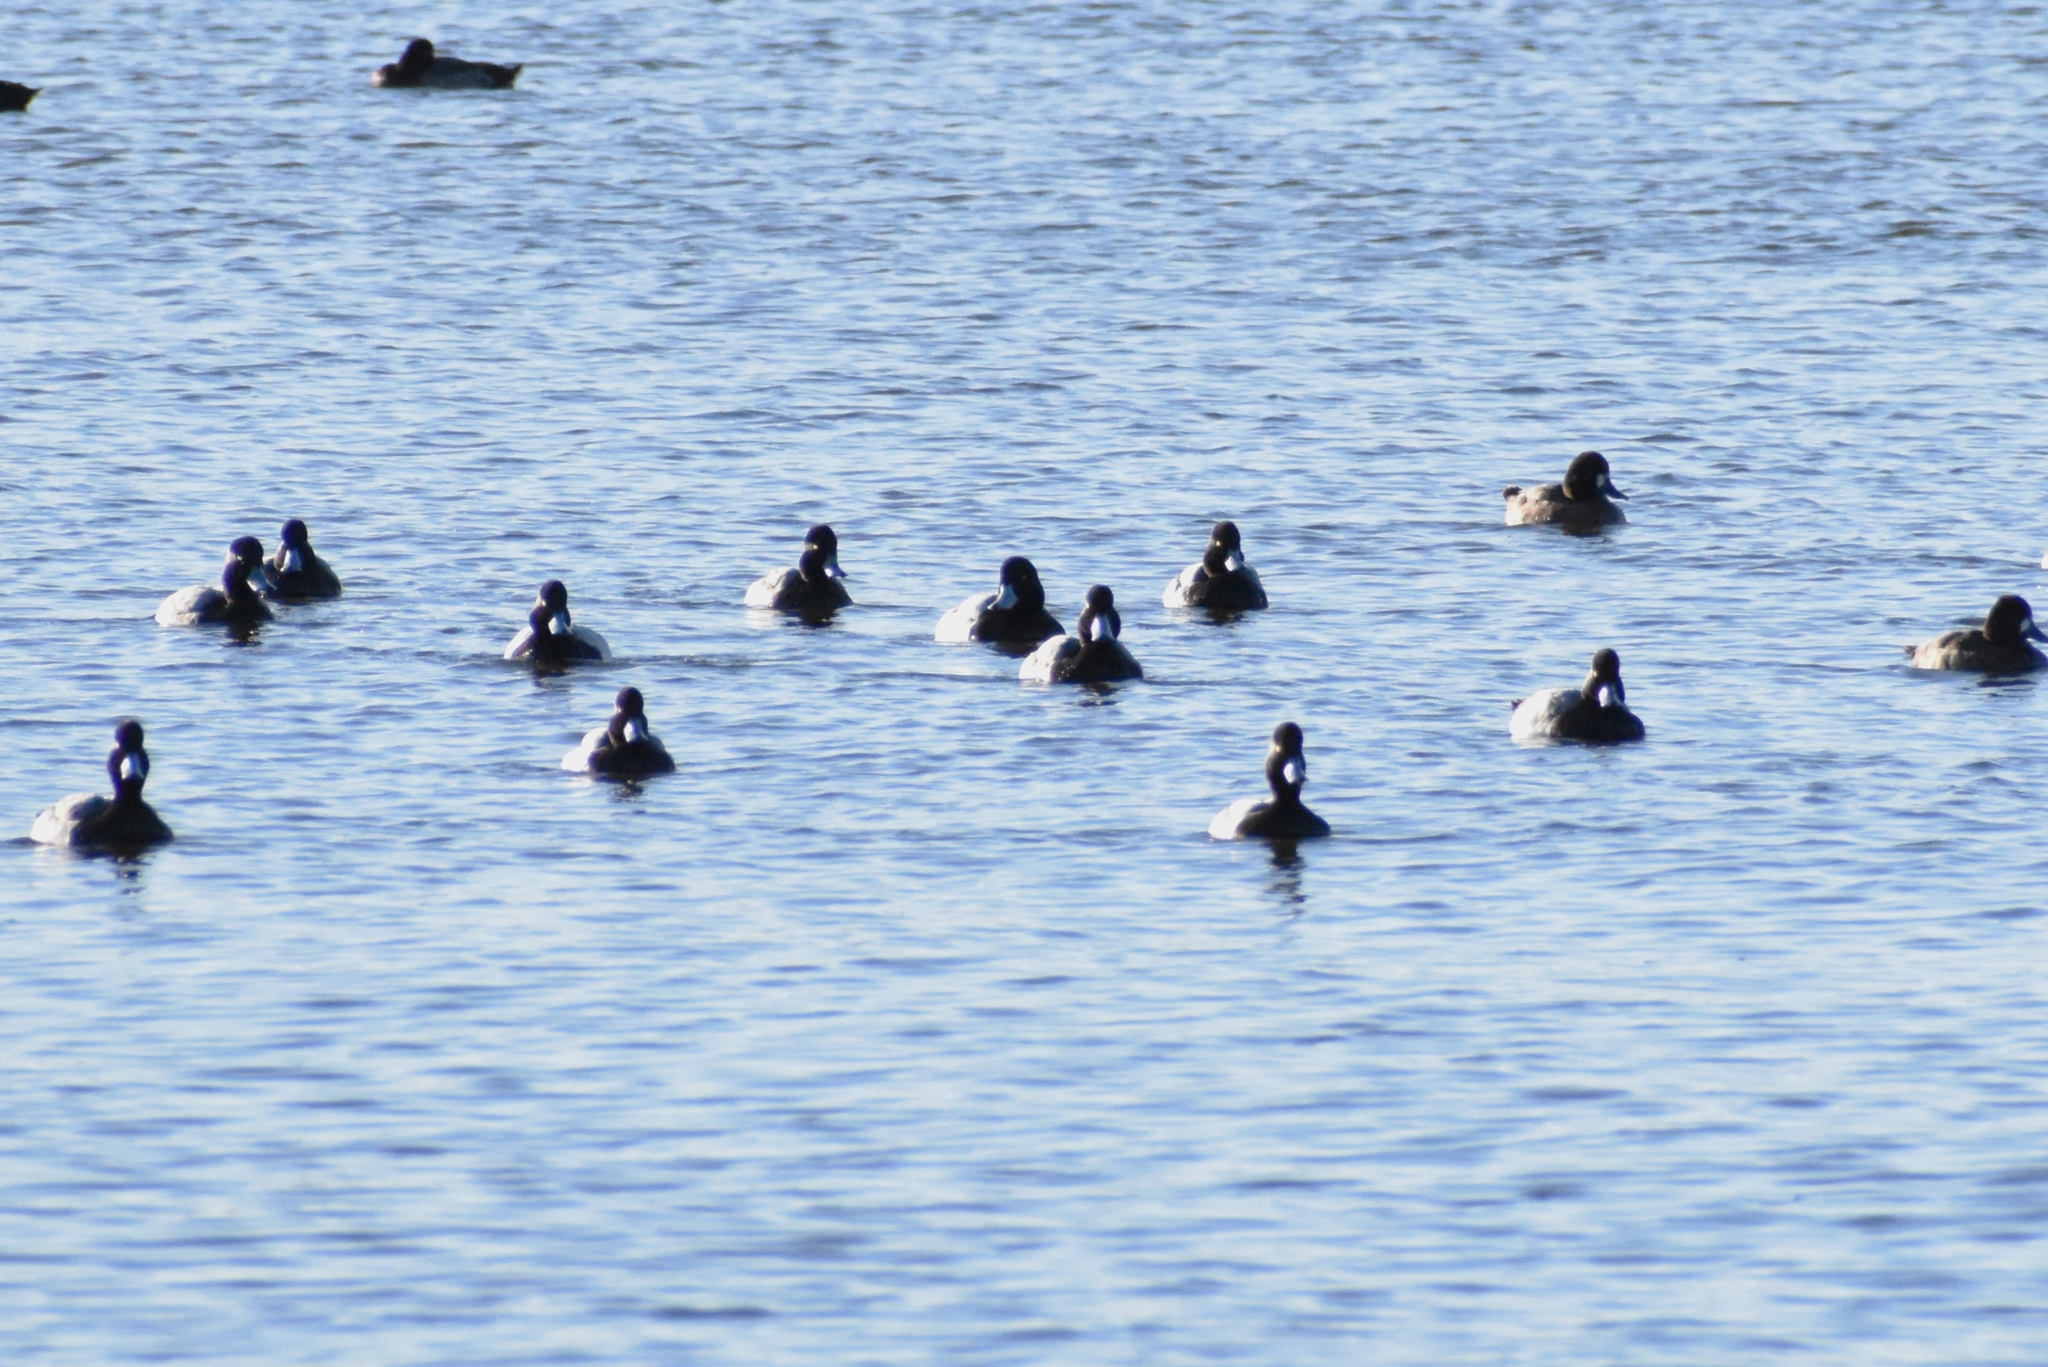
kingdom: Animalia
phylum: Chordata
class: Aves
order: Anseriformes
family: Anatidae
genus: Aythya
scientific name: Aythya affinis
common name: Lesser scaup
